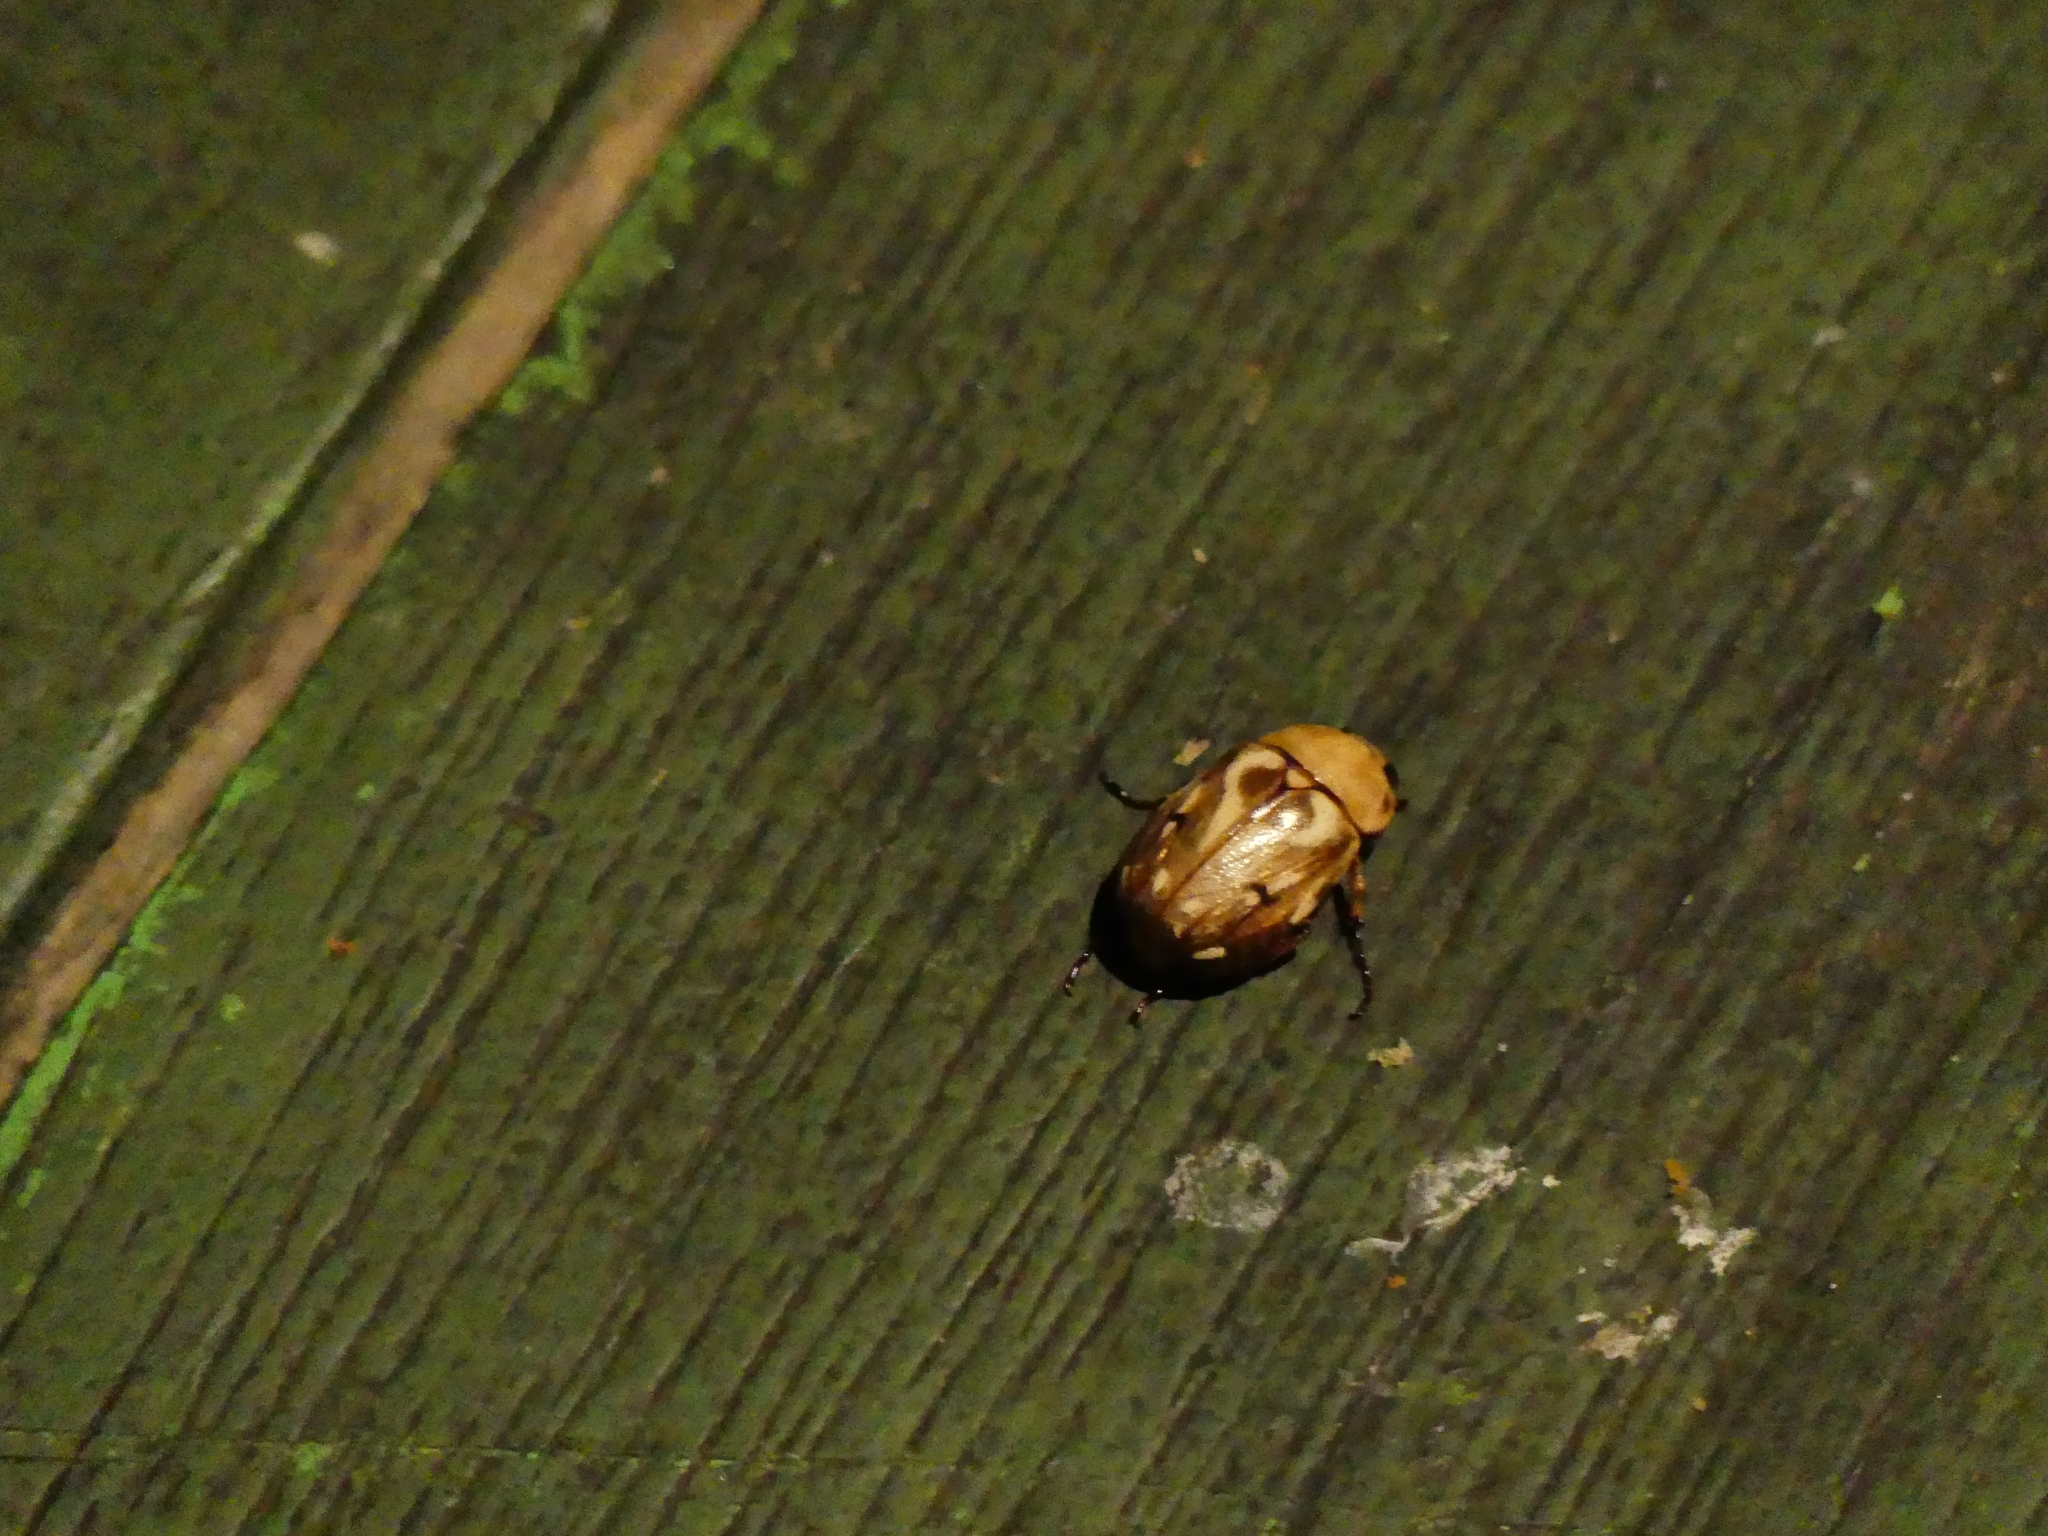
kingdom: Animalia
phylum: Arthropoda
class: Insecta
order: Coleoptera
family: Scarabaeidae
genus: Cyclocephala
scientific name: Cyclocephala subsignata
